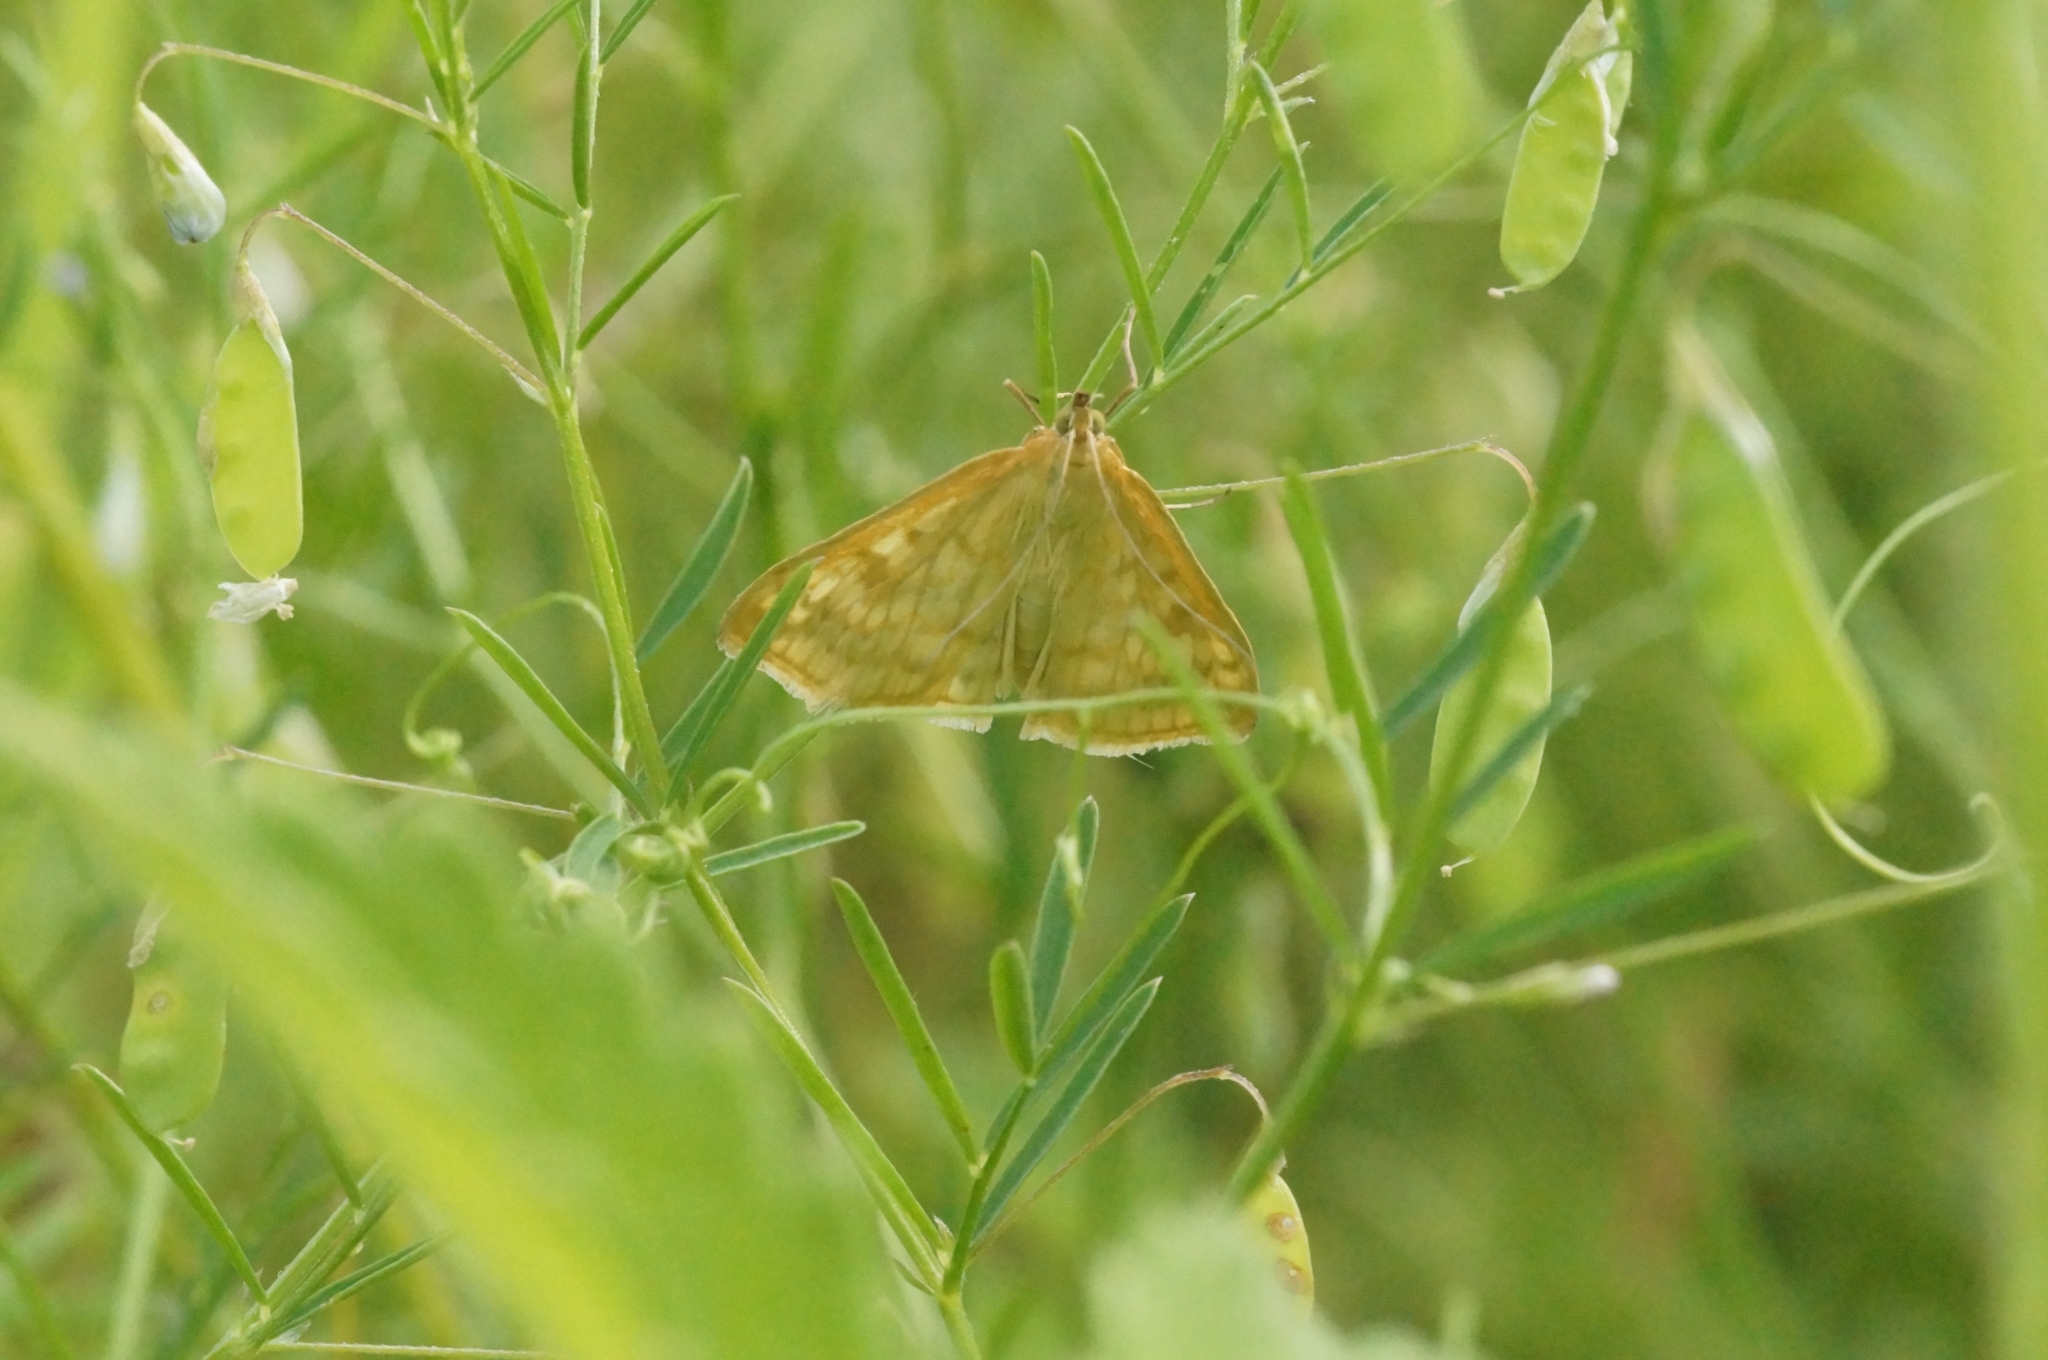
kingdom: Animalia
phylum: Arthropoda
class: Insecta
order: Lepidoptera
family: Crambidae
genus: Sitochroa
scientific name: Sitochroa verticalis
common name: Lesser pearl
